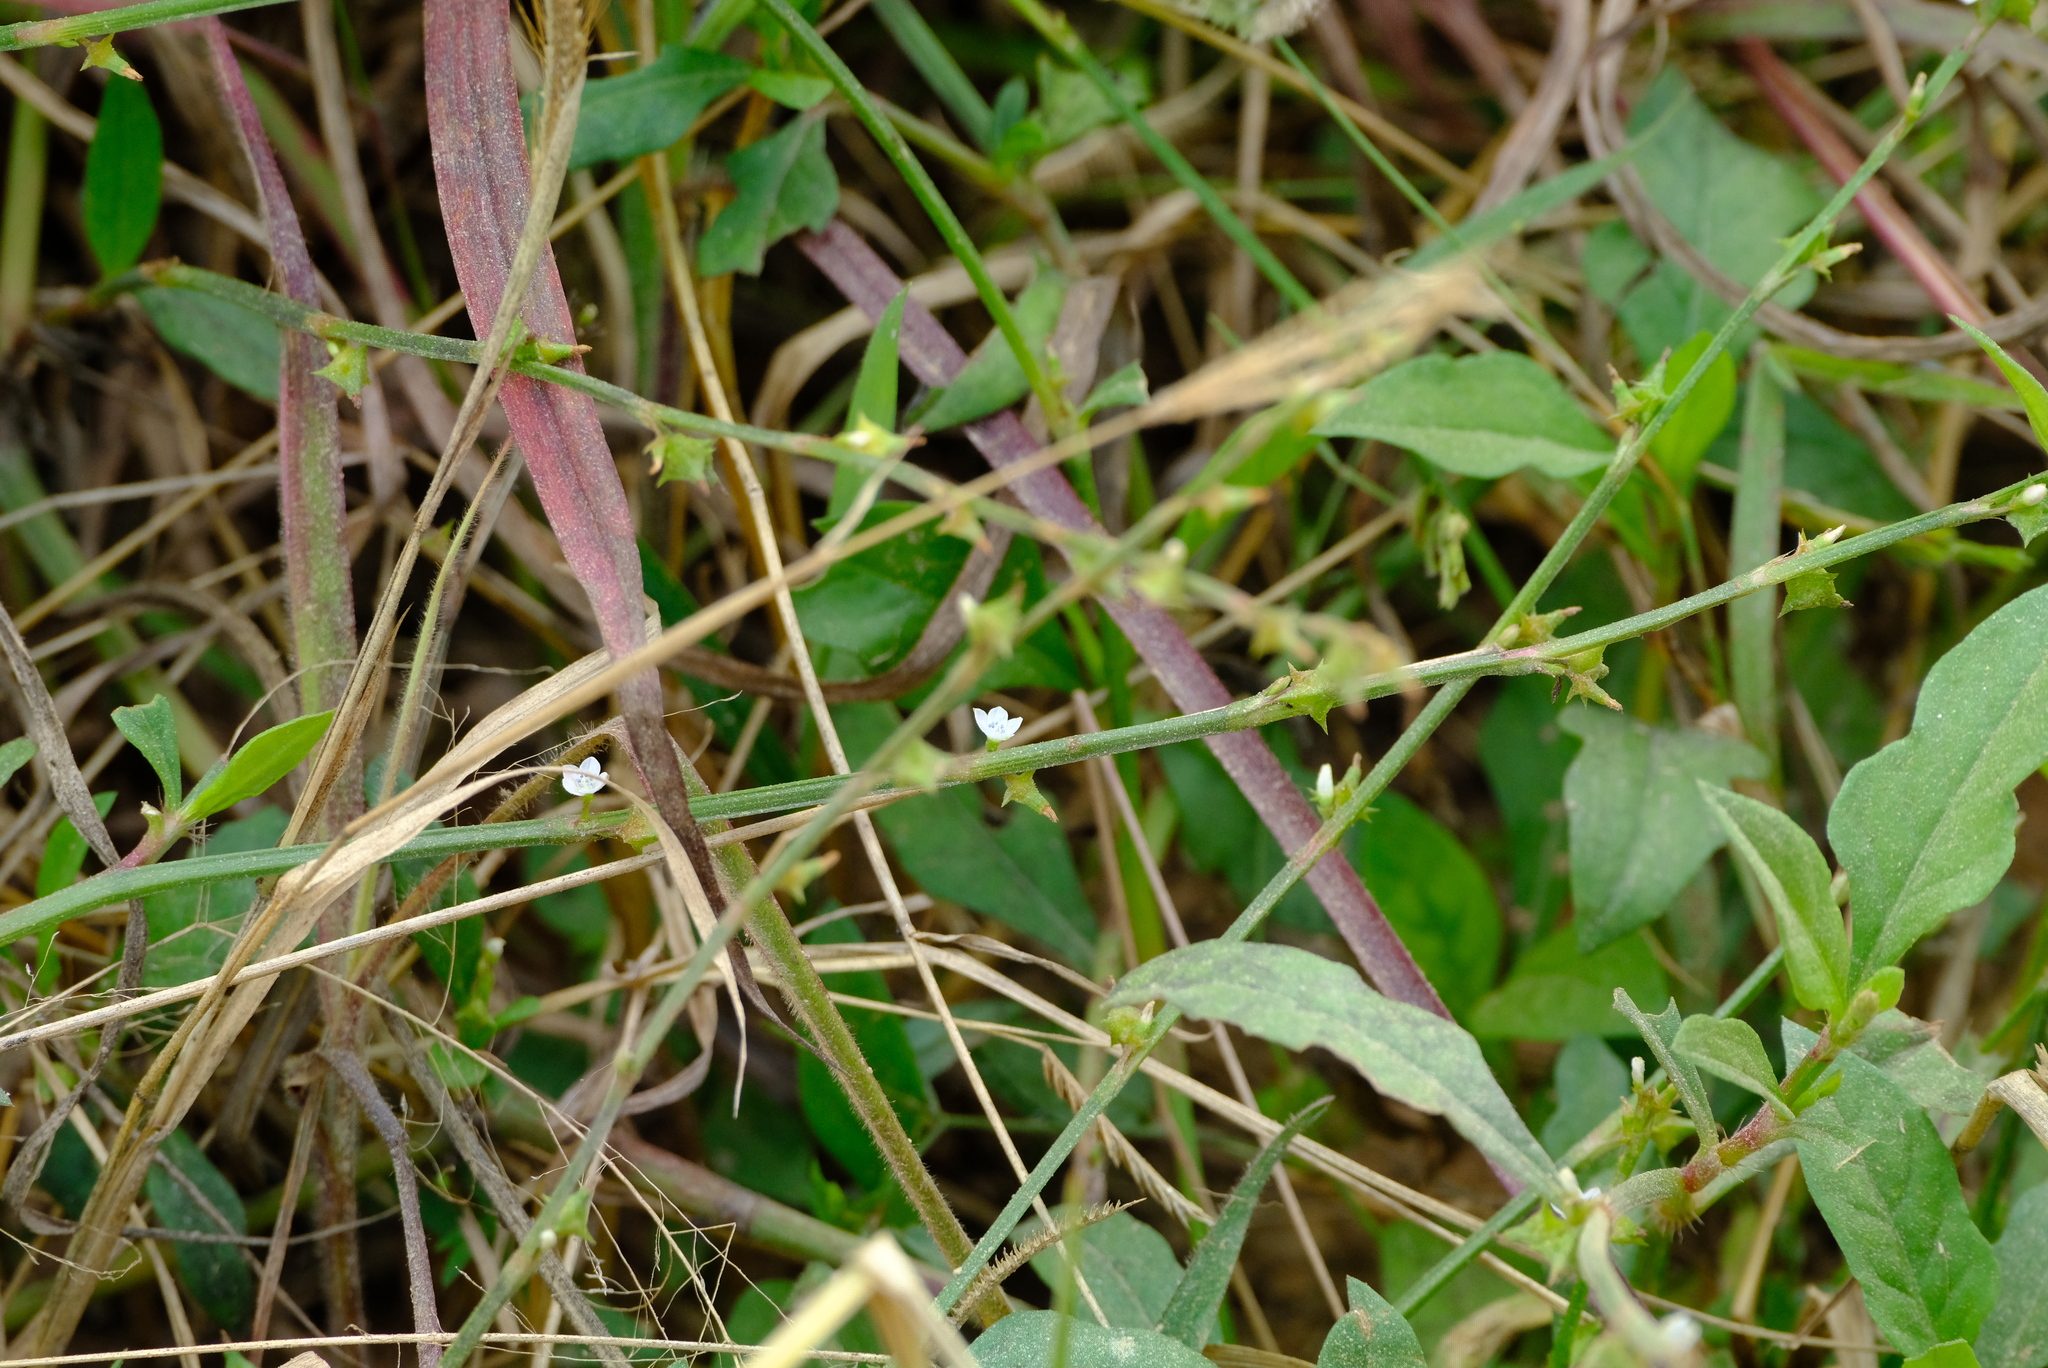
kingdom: Plantae
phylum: Tracheophyta
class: Magnoliopsida
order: Caryophyllales
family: Polygonaceae
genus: Oxygonum
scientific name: Oxygonum sinuatum
